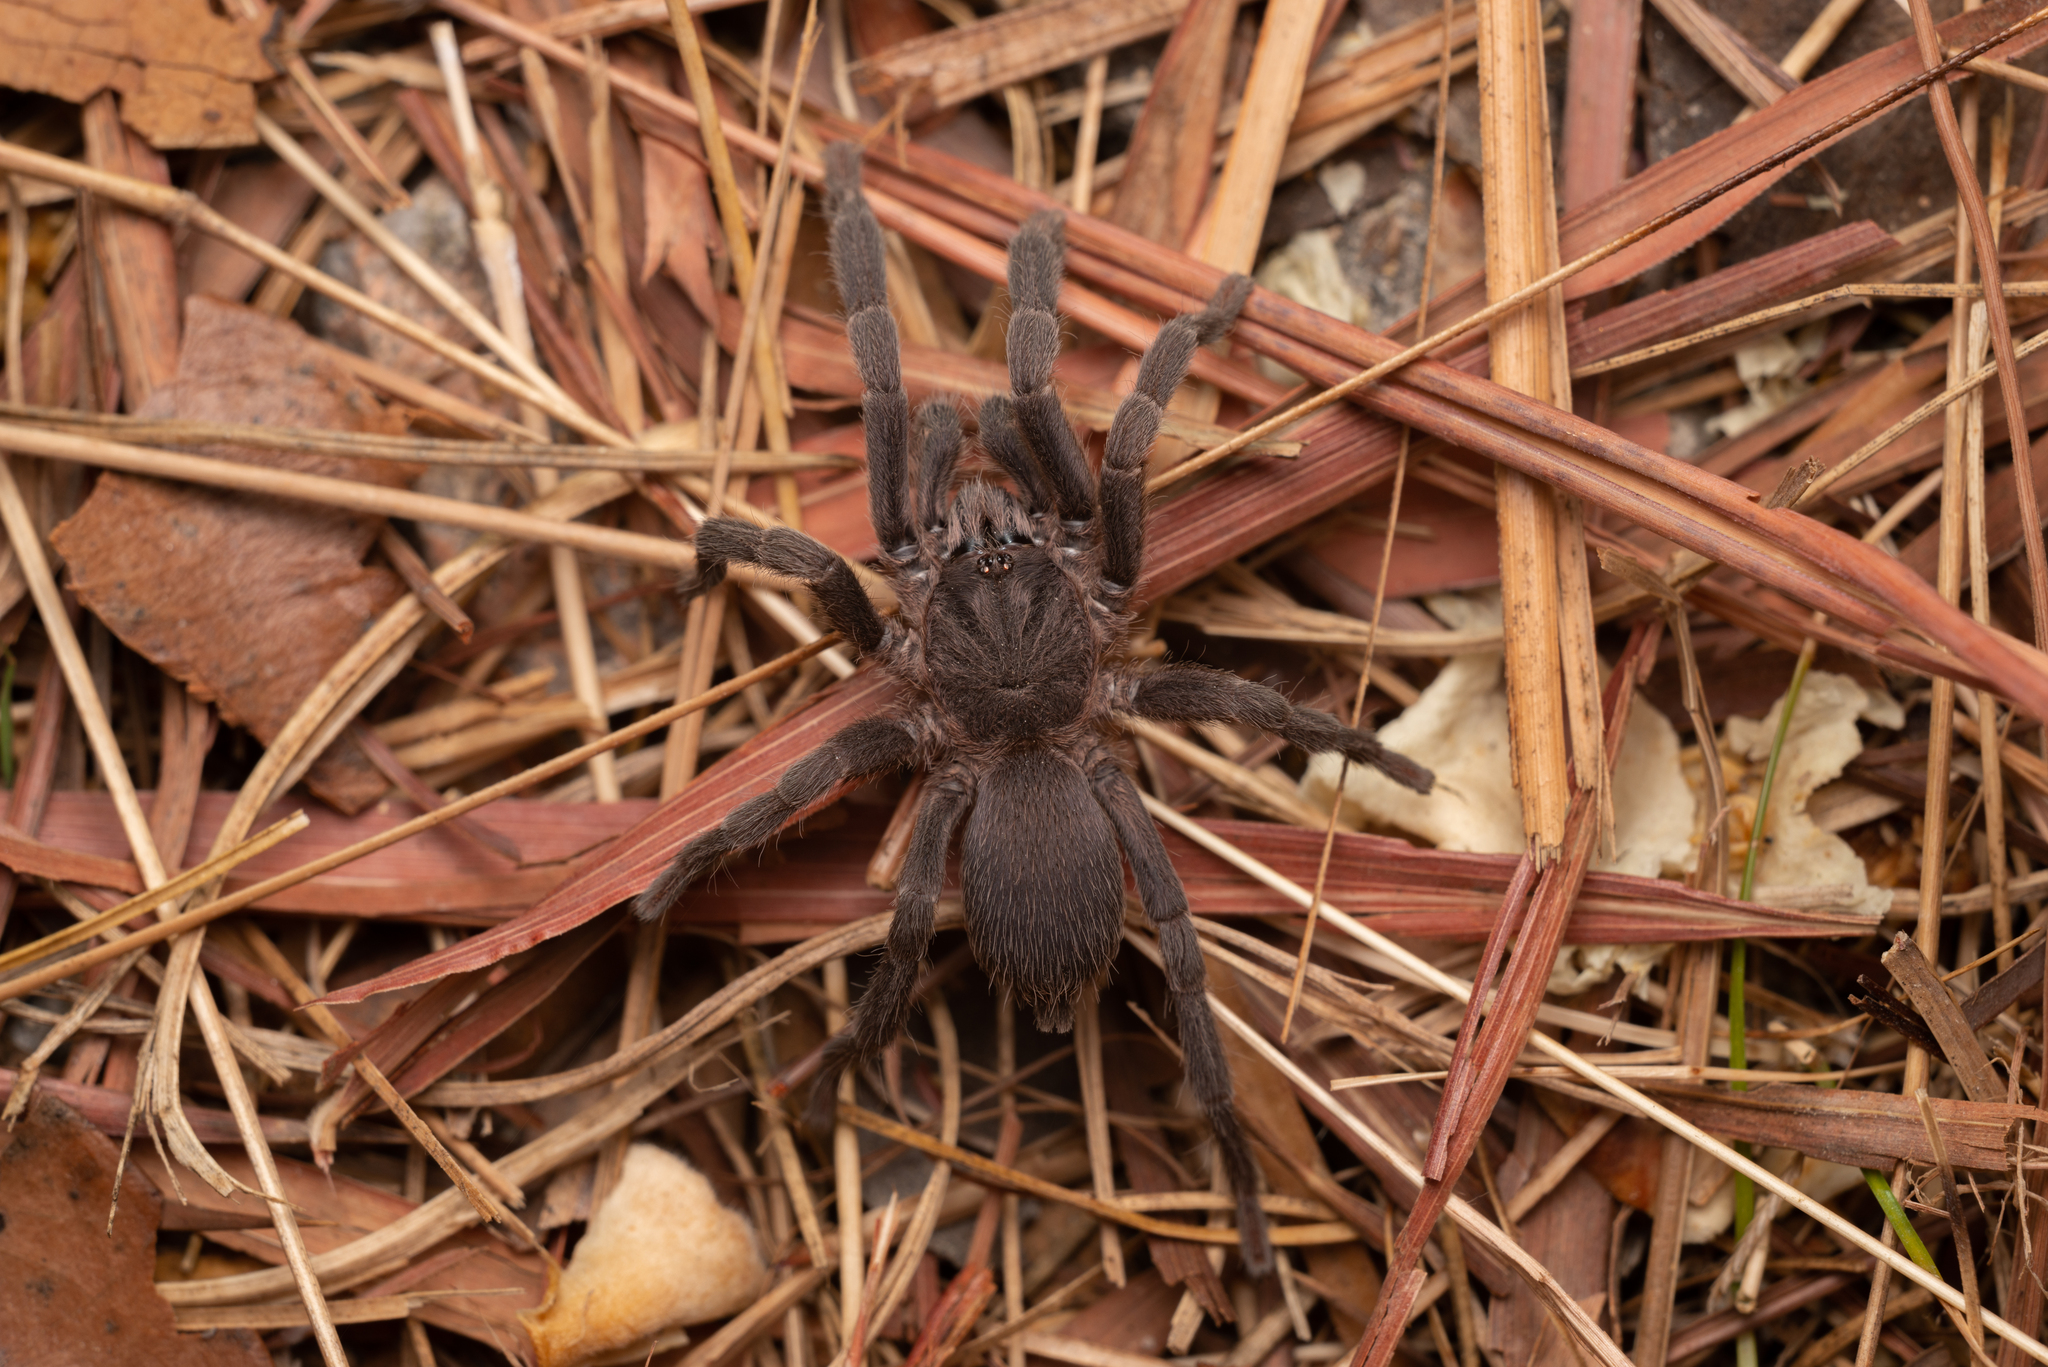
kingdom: Animalia
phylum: Arthropoda
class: Arachnida
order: Araneae
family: Theraphosidae
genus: Phlogiellus
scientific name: Phlogiellus
